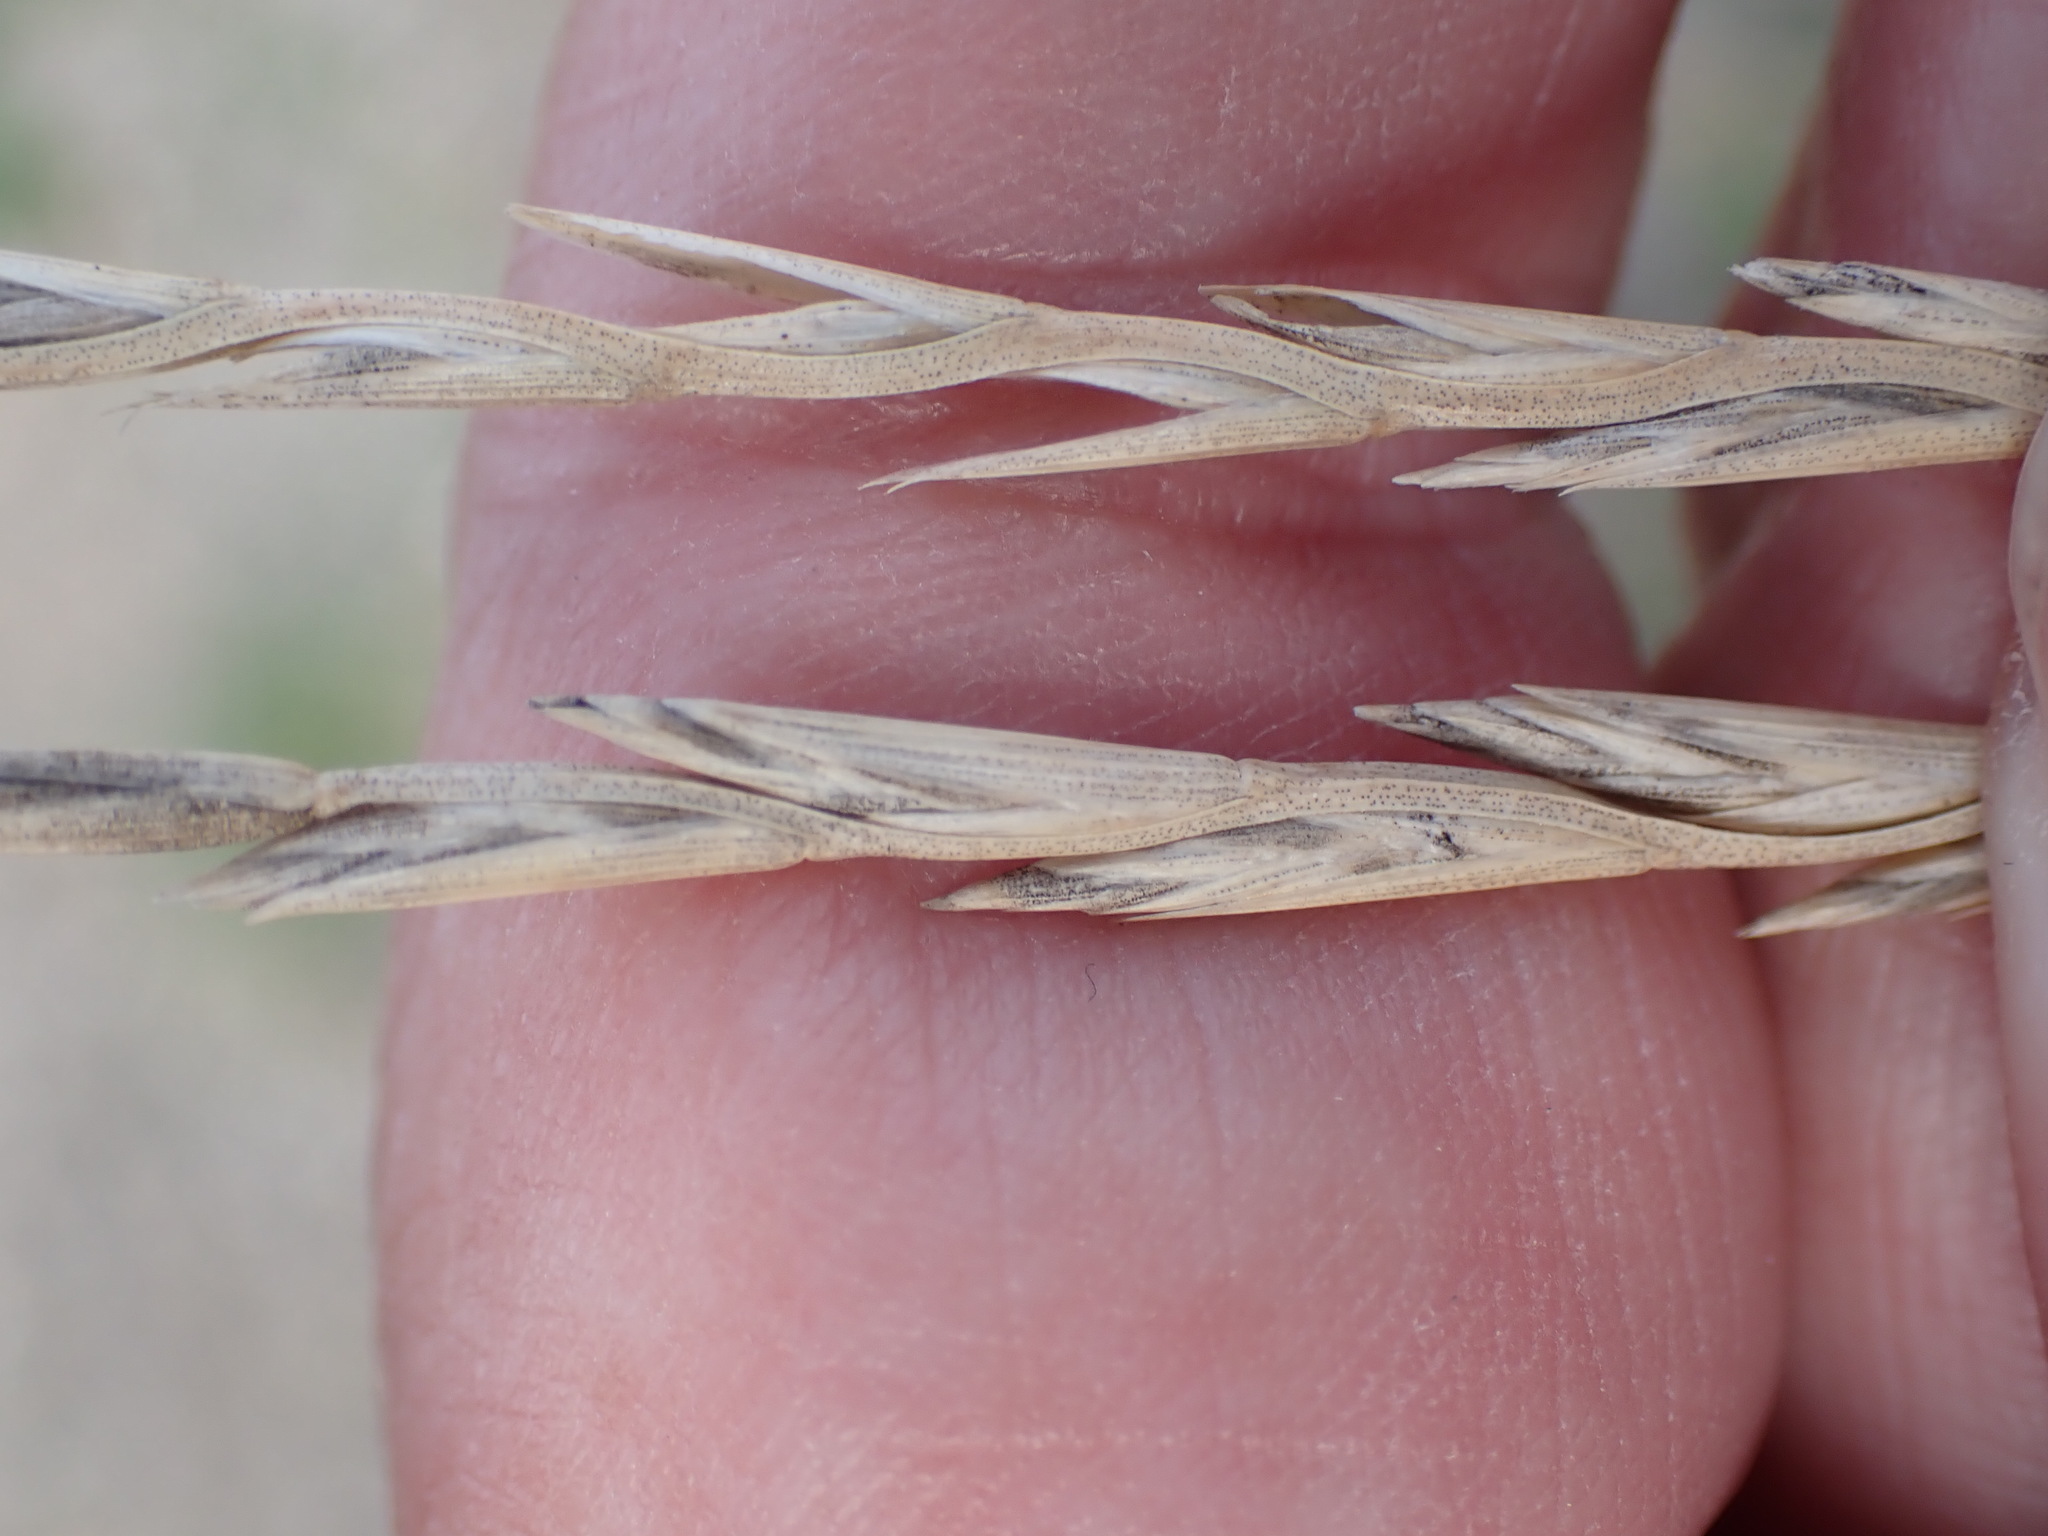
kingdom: Plantae
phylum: Tracheophyta
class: Liliopsida
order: Poales
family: Poaceae
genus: Lolium
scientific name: Lolium perenne
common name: Perennial ryegrass
